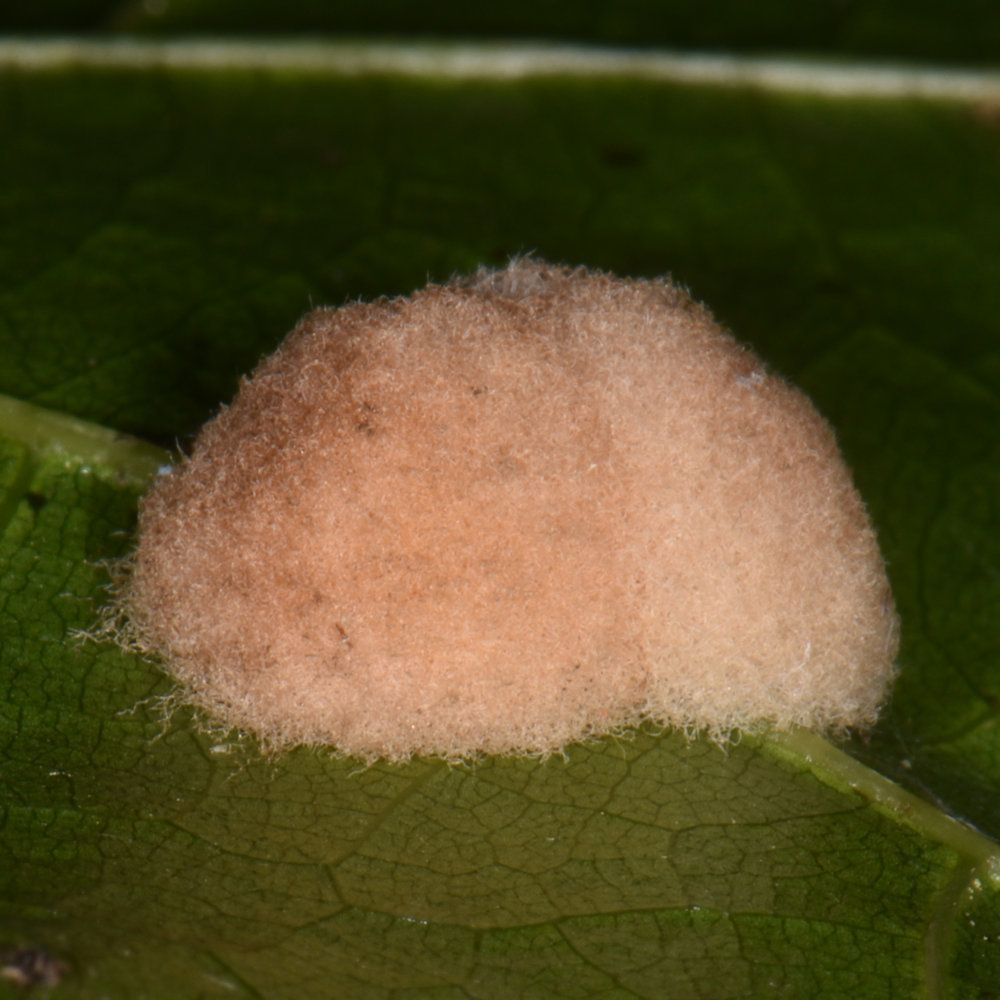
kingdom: Animalia
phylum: Arthropoda
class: Insecta
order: Hymenoptera
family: Cynipidae
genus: Callirhytis
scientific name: Callirhytis
